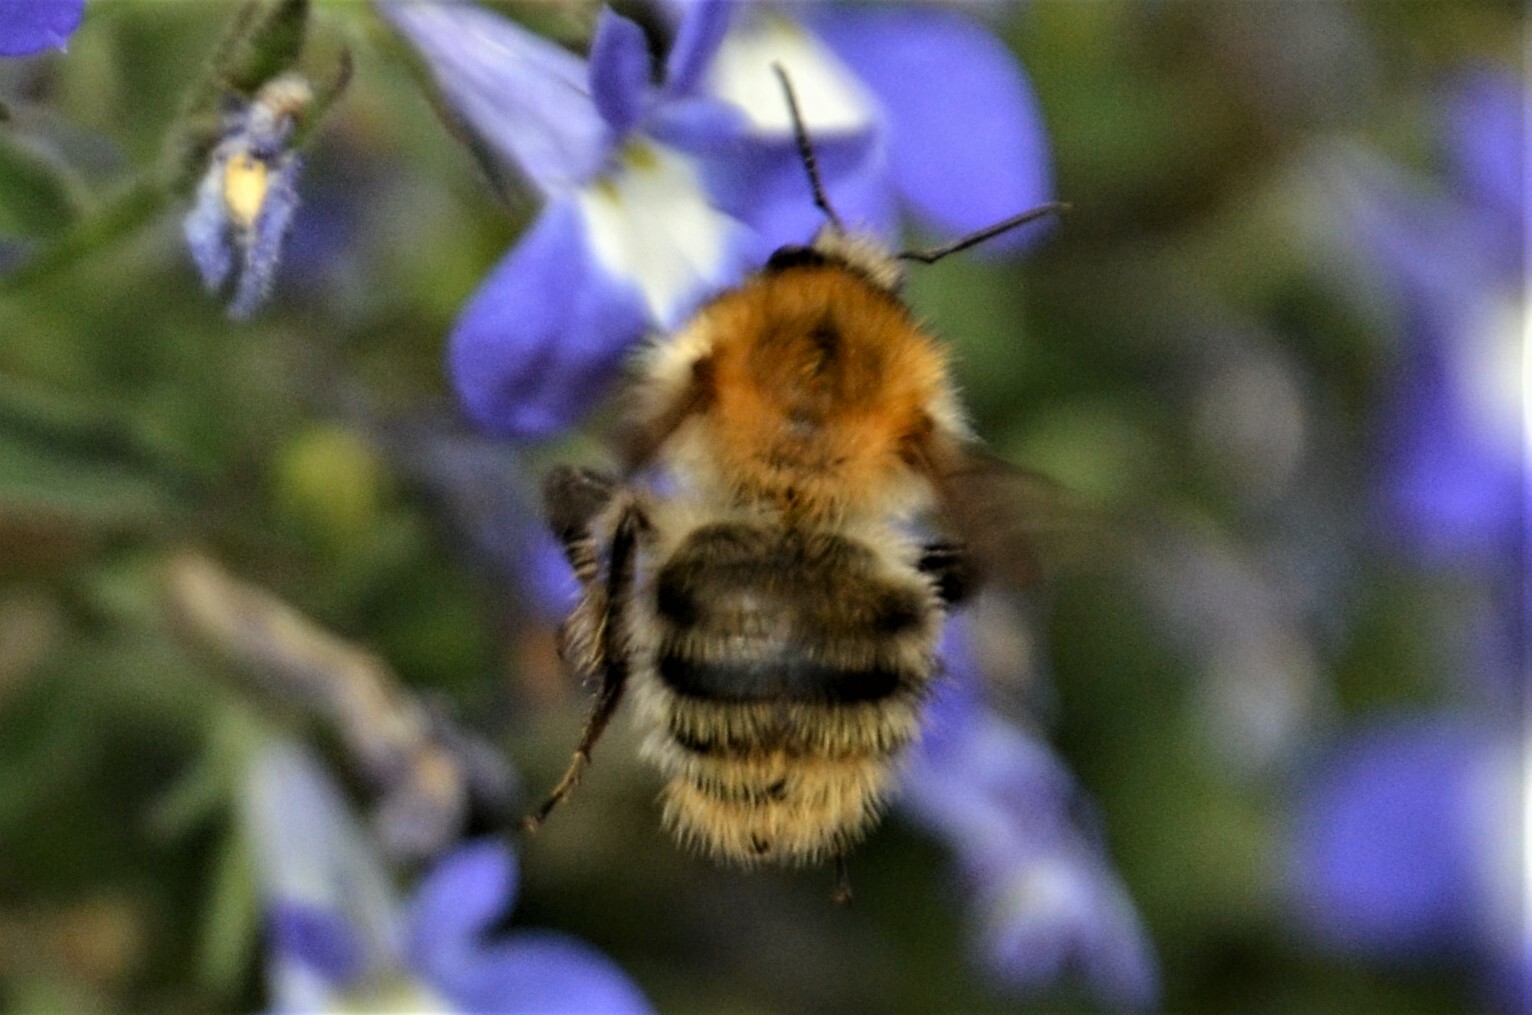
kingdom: Animalia
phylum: Arthropoda
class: Insecta
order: Hymenoptera
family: Apidae
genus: Bombus
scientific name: Bombus pascuorum
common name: Common carder bee
